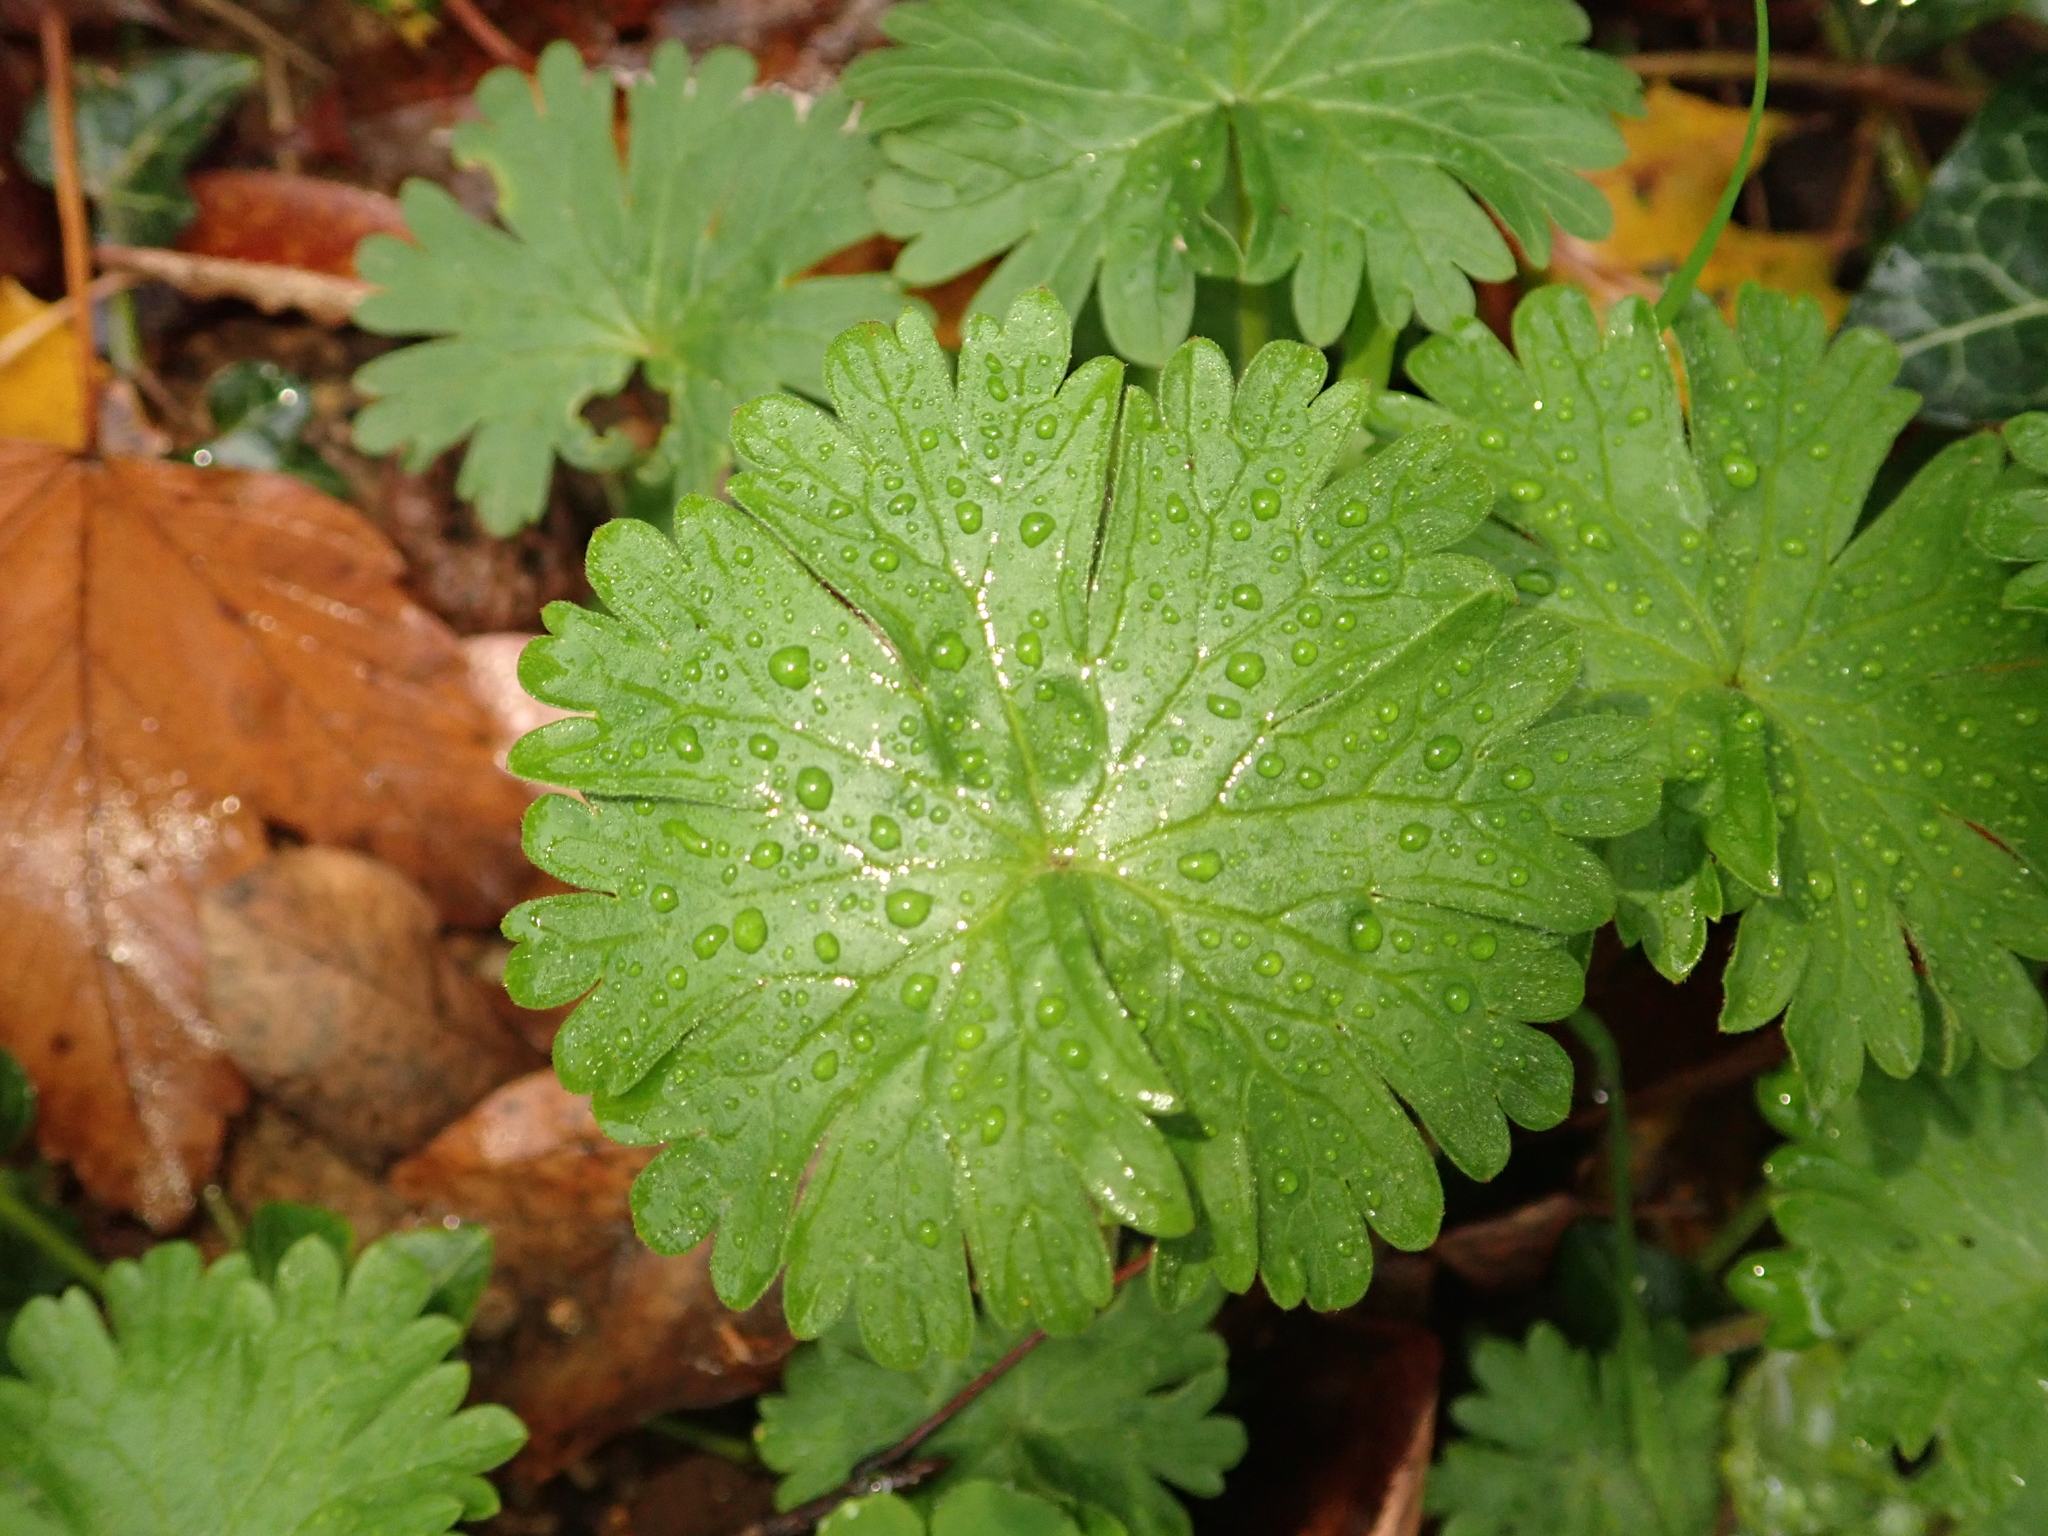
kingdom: Plantae
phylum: Tracheophyta
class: Magnoliopsida
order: Geraniales
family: Geraniaceae
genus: Geranium
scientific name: Geranium molle
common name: Dove's-foot crane's-bill
